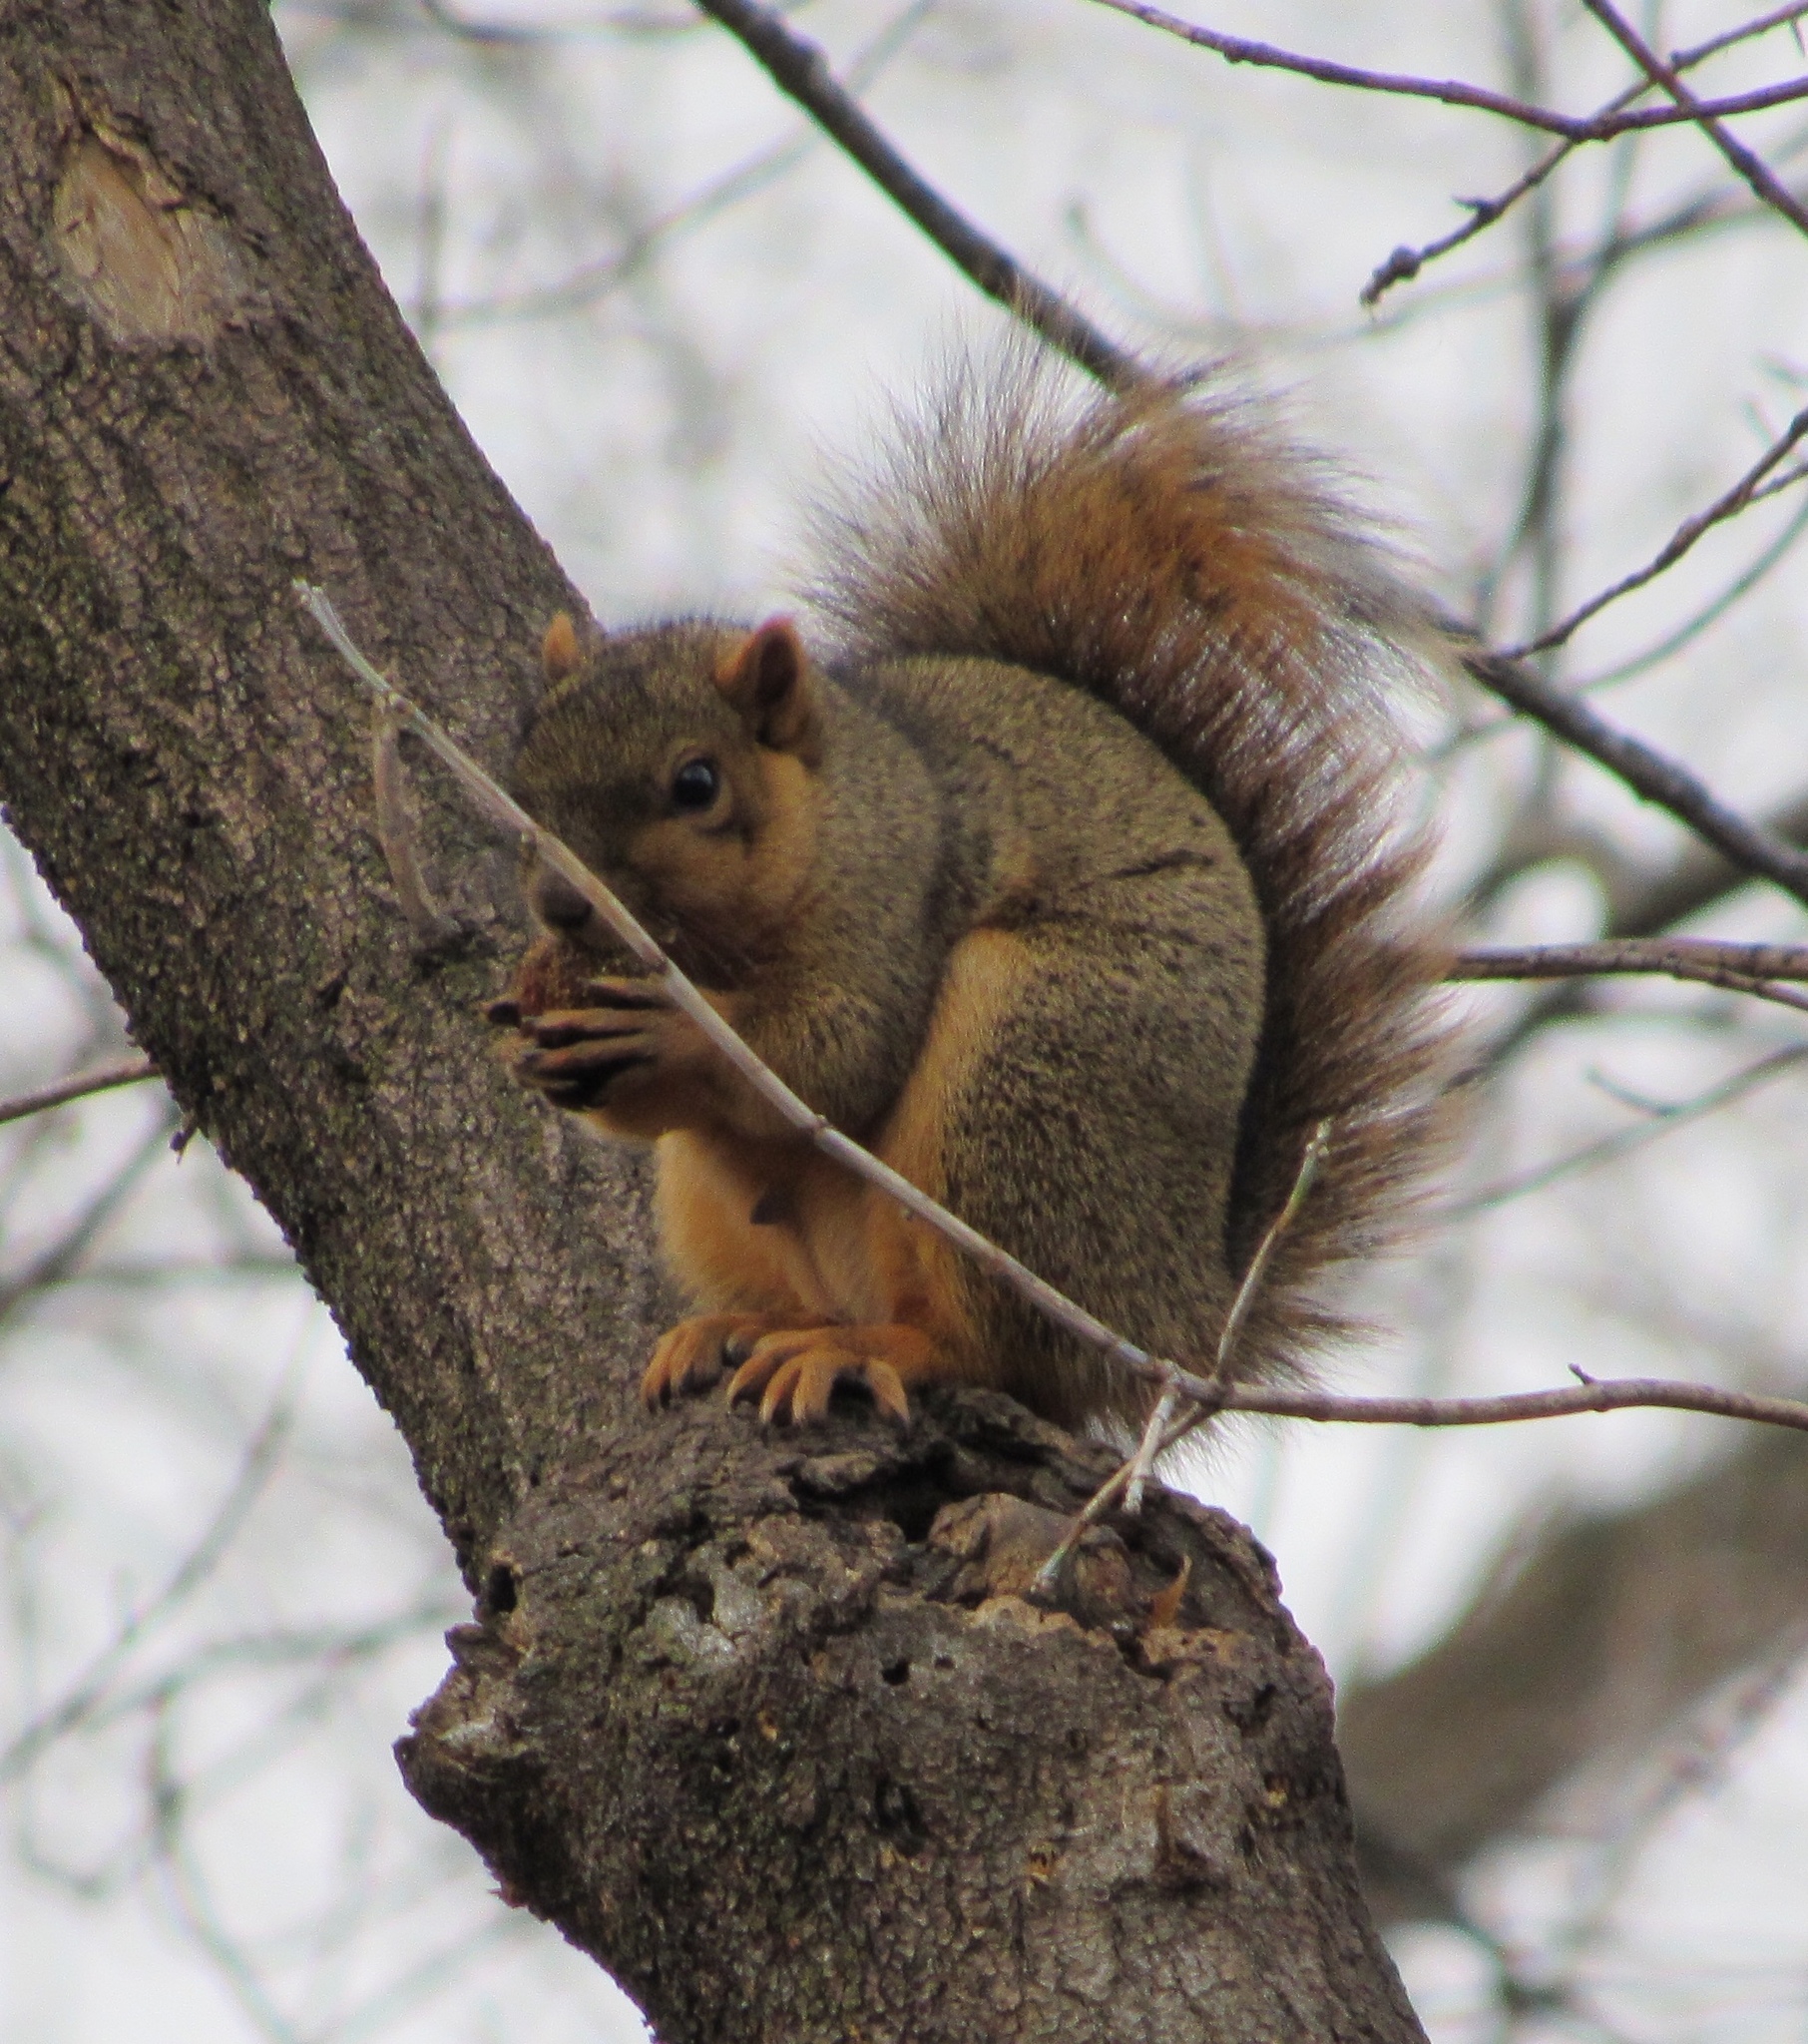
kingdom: Animalia
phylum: Chordata
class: Mammalia
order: Rodentia
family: Sciuridae
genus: Sciurus
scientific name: Sciurus niger
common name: Fox squirrel
